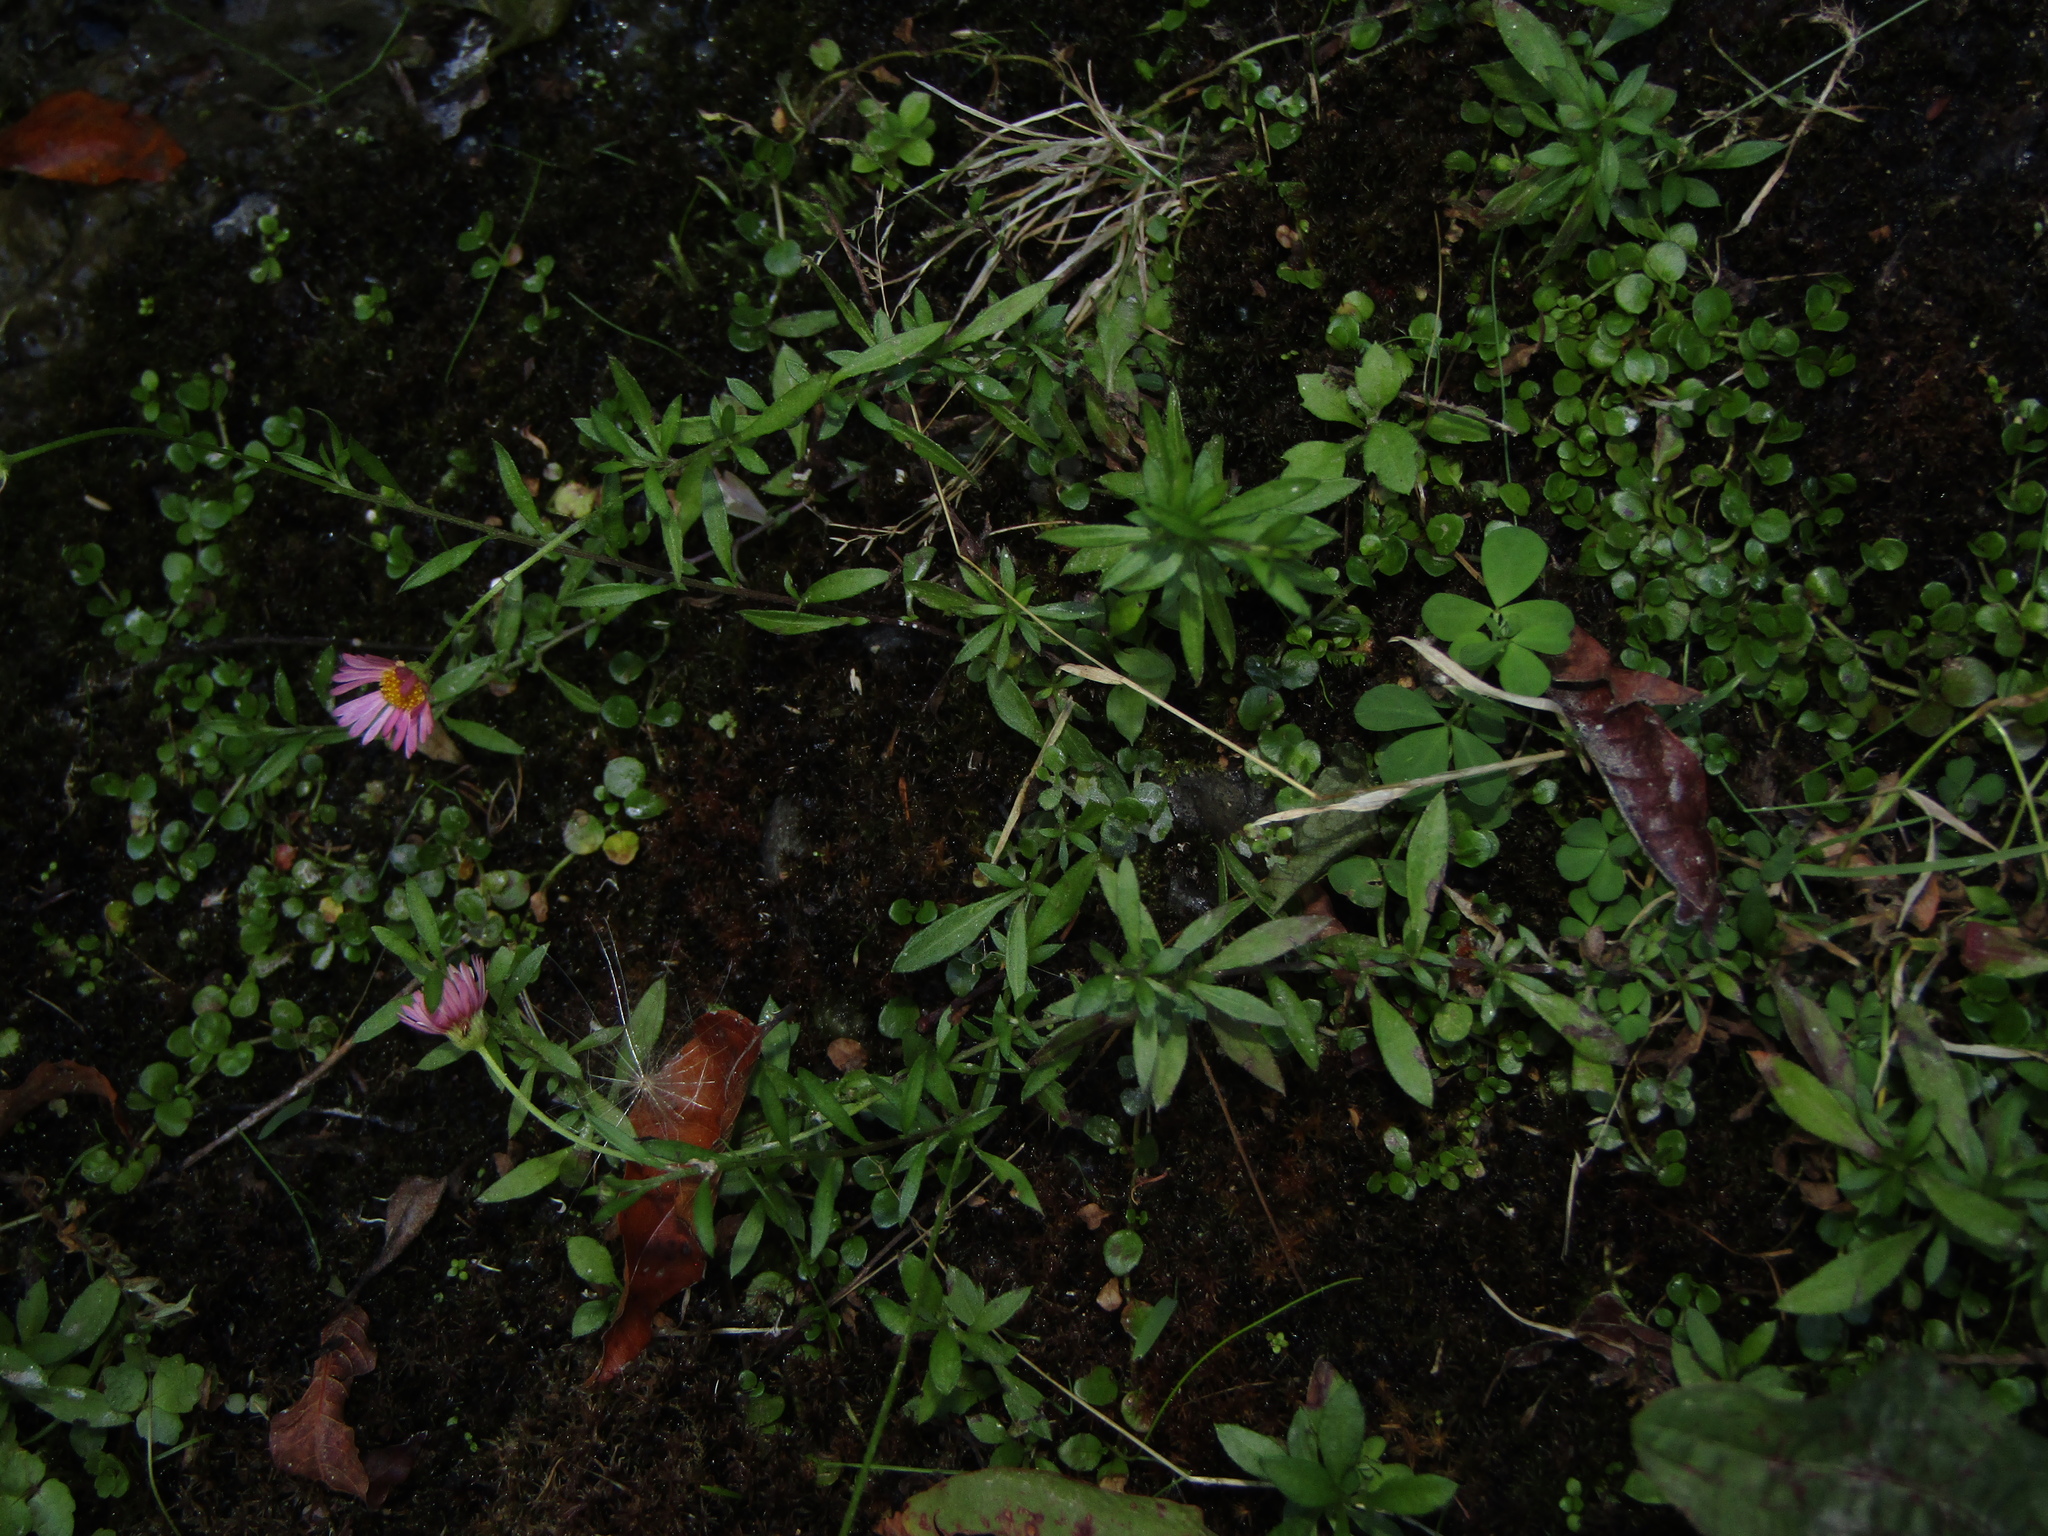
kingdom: Plantae
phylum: Tracheophyta
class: Magnoliopsida
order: Asterales
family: Asteraceae
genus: Erigeron
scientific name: Erigeron karvinskianus
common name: Mexican fleabane
